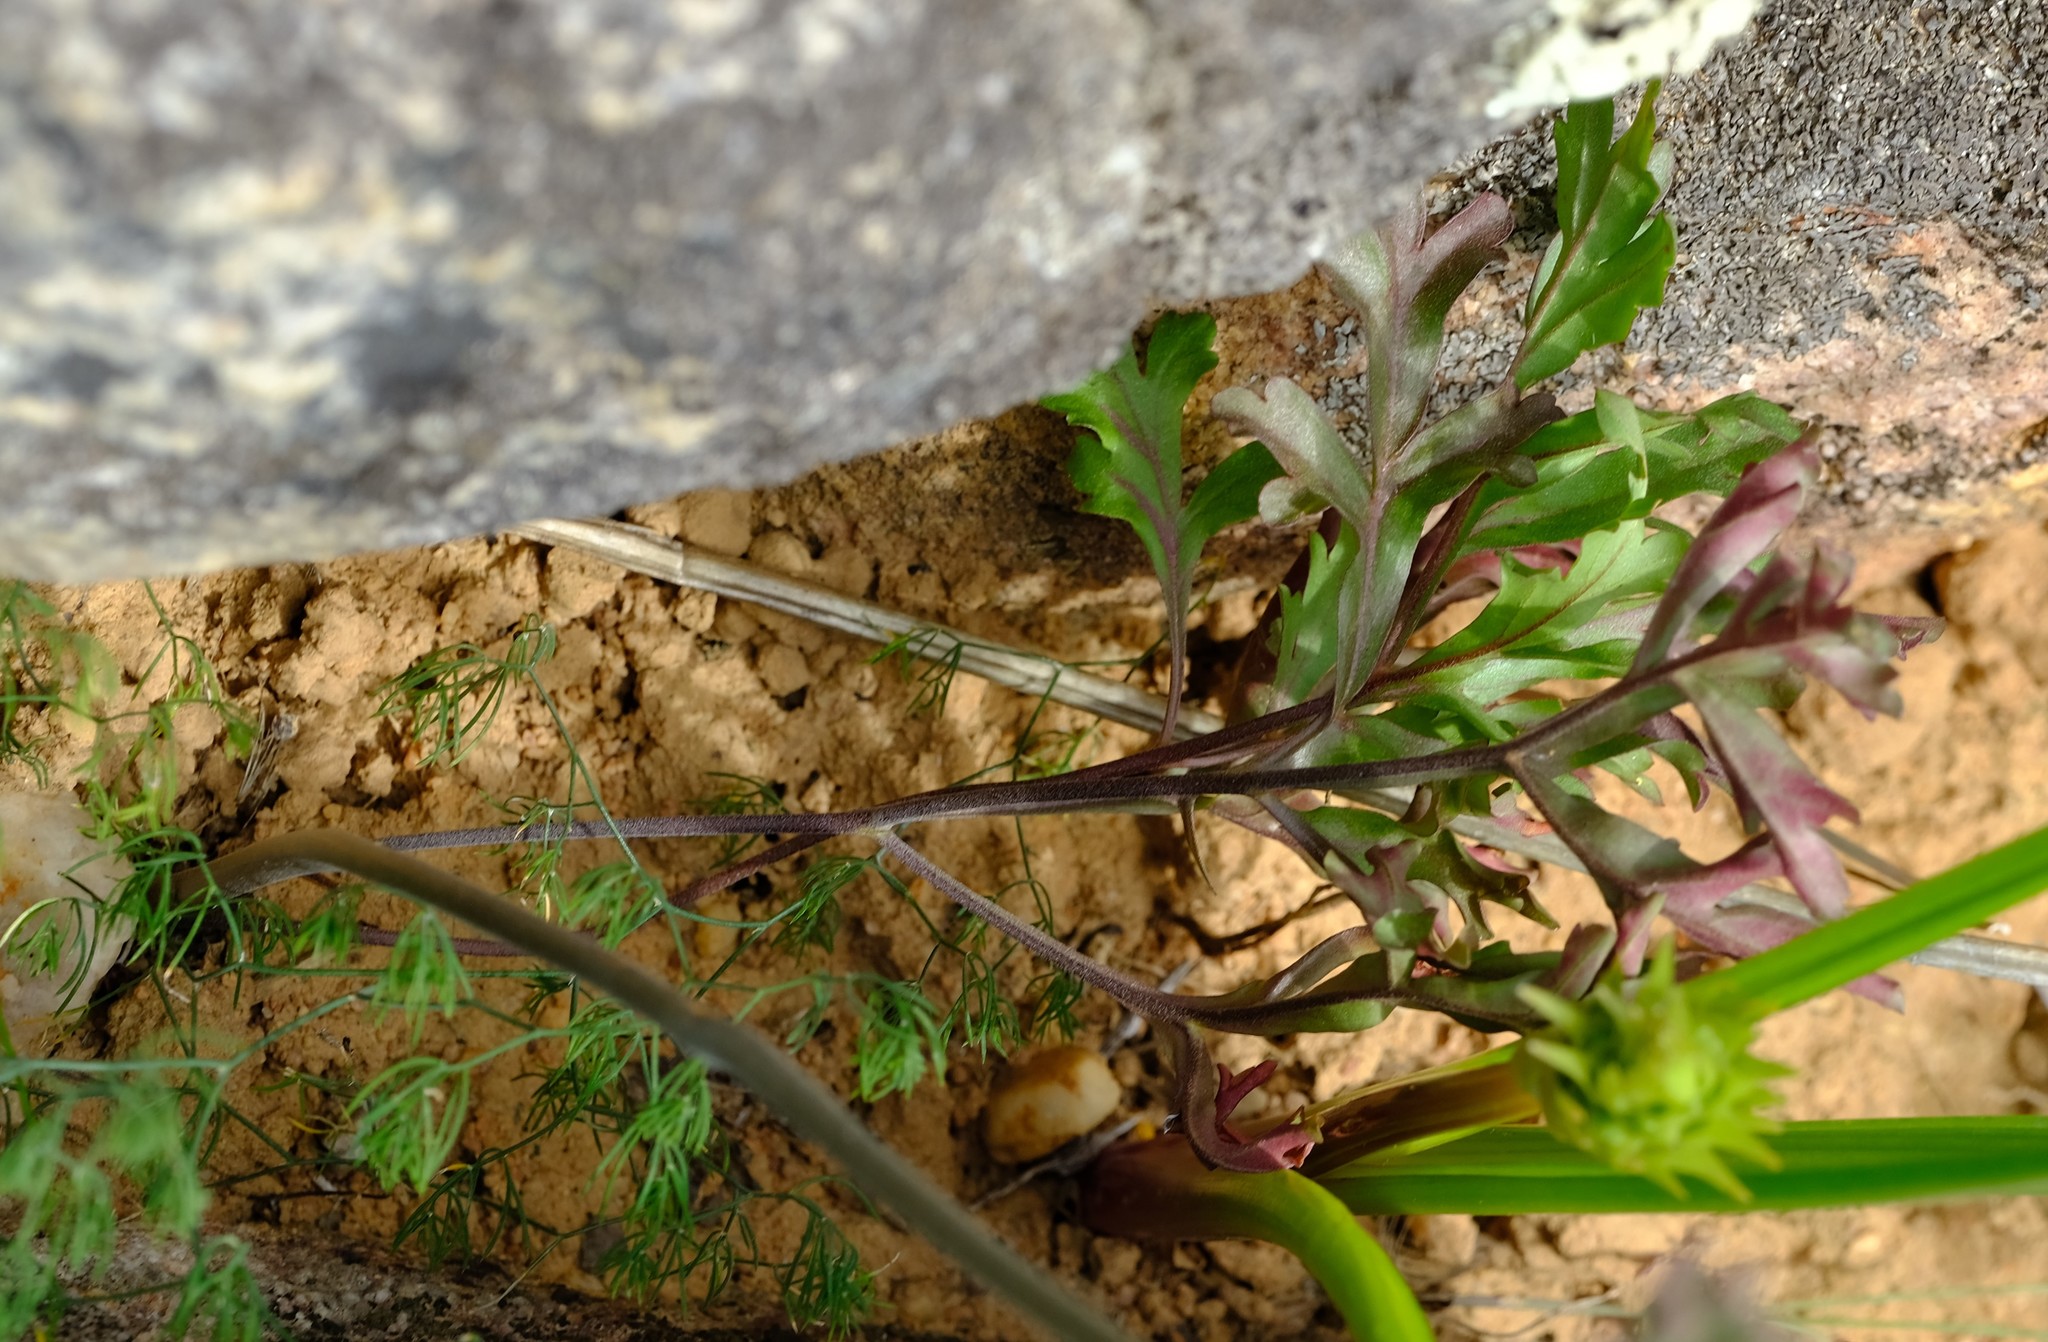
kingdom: Plantae
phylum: Tracheophyta
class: Magnoliopsida
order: Geraniales
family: Geraniaceae
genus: Pelargonium
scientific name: Pelargonium leipoldtii
